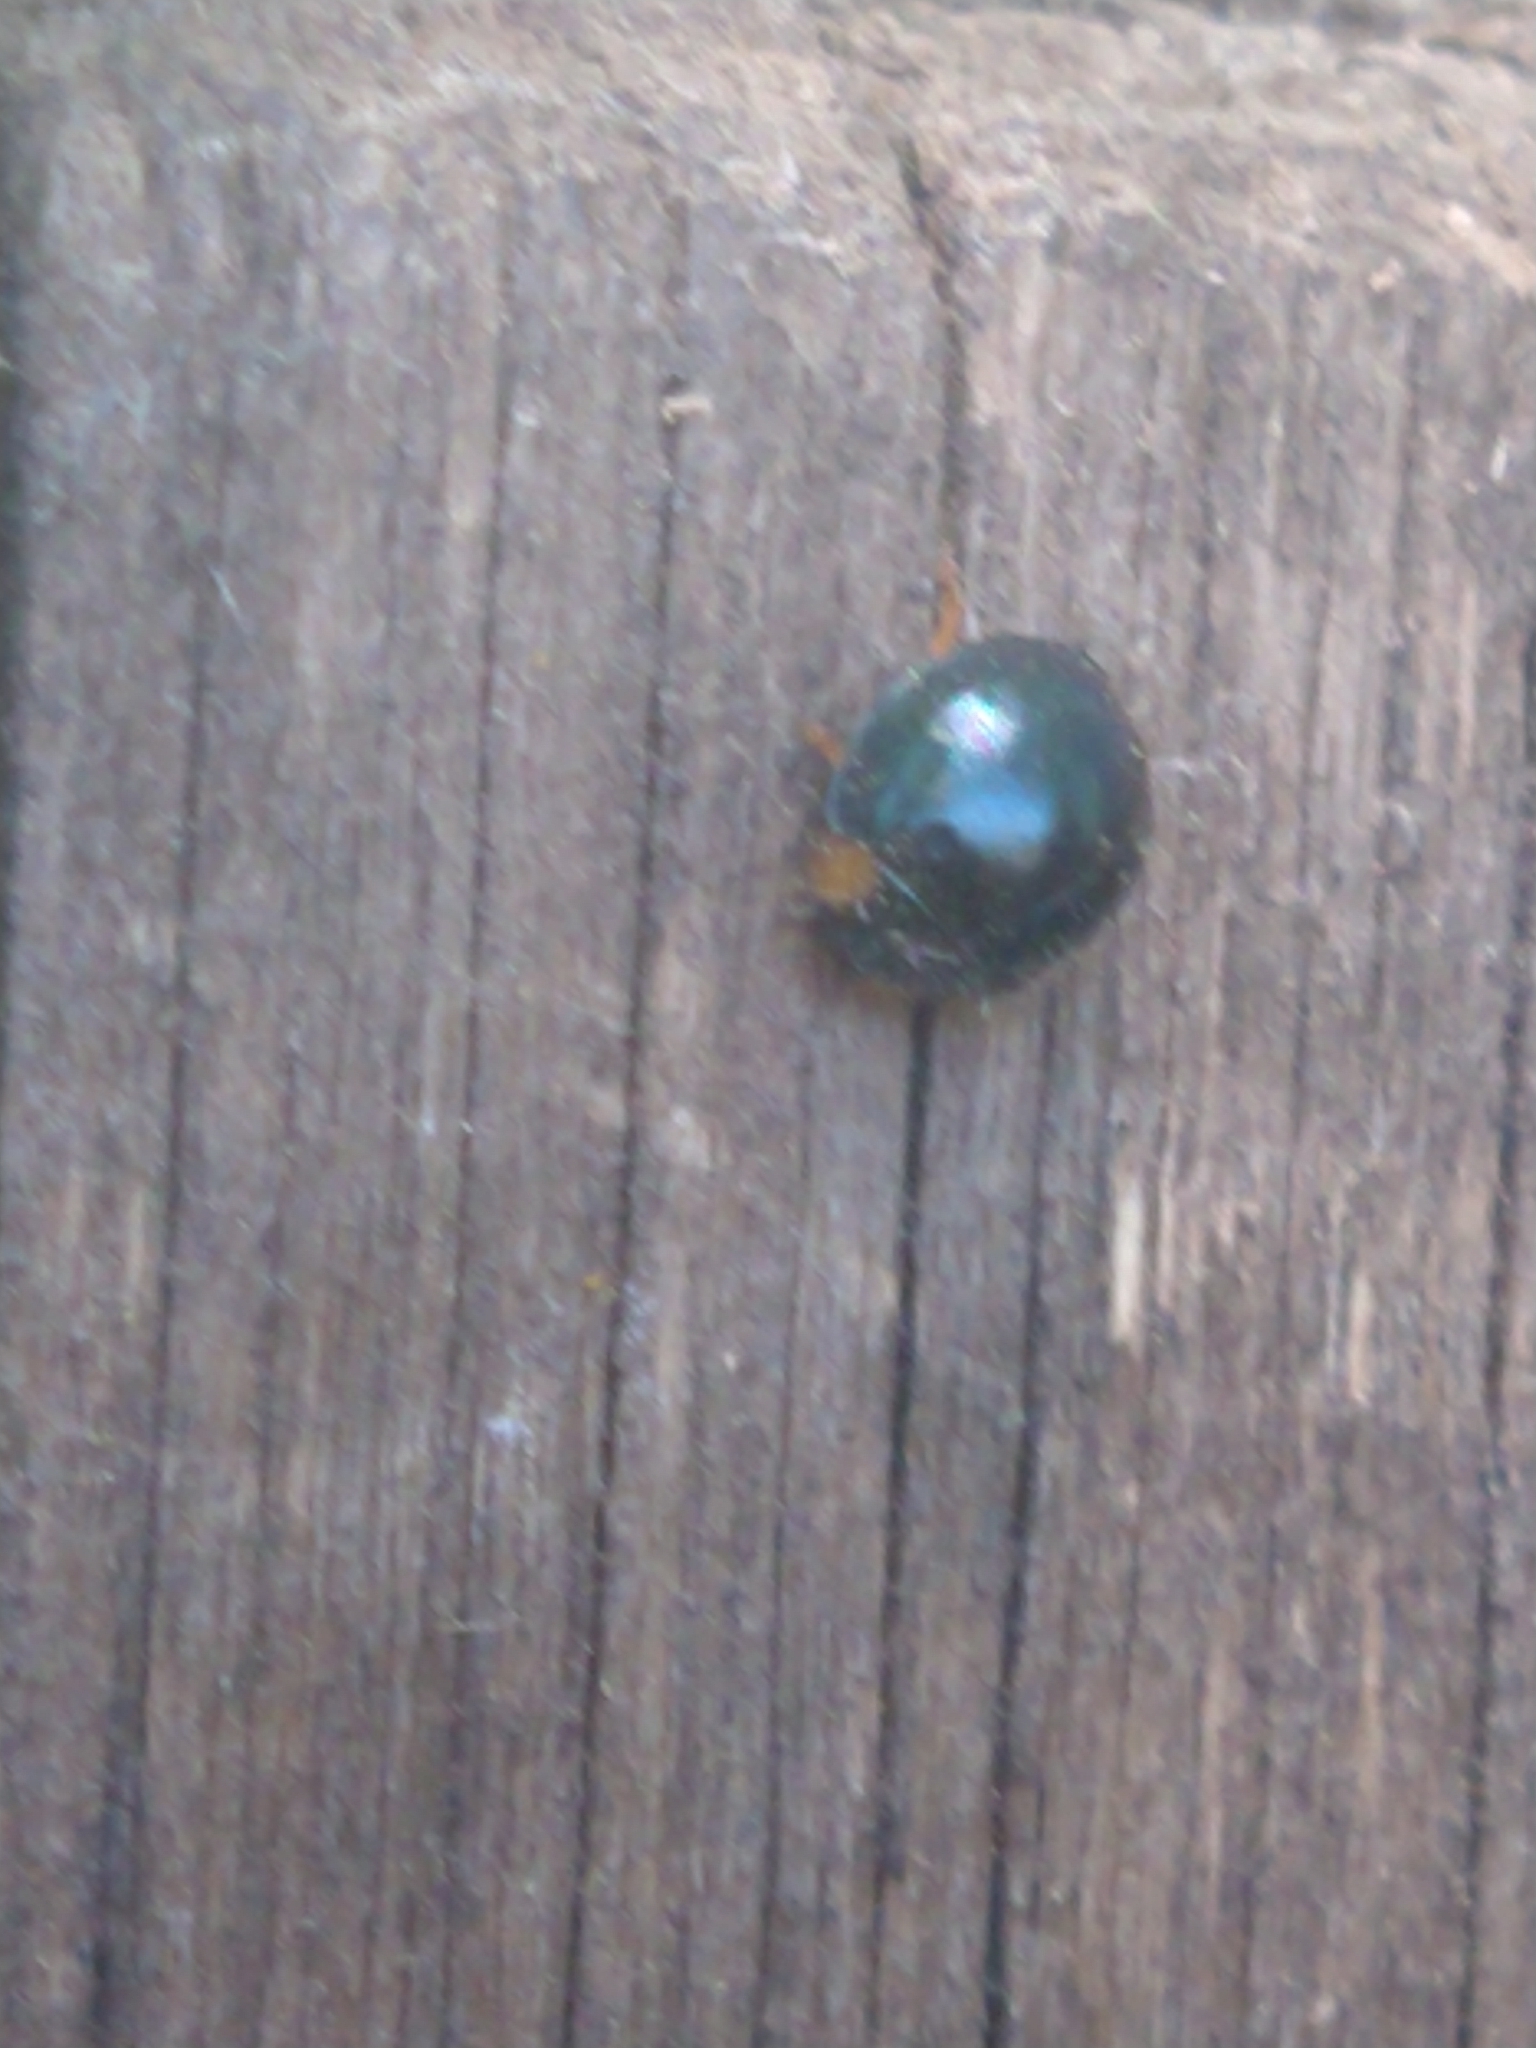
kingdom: Animalia
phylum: Arthropoda
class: Insecta
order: Coleoptera
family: Coccinellidae
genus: Curinus
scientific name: Curinus coeruleus
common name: Ladybird beetle
